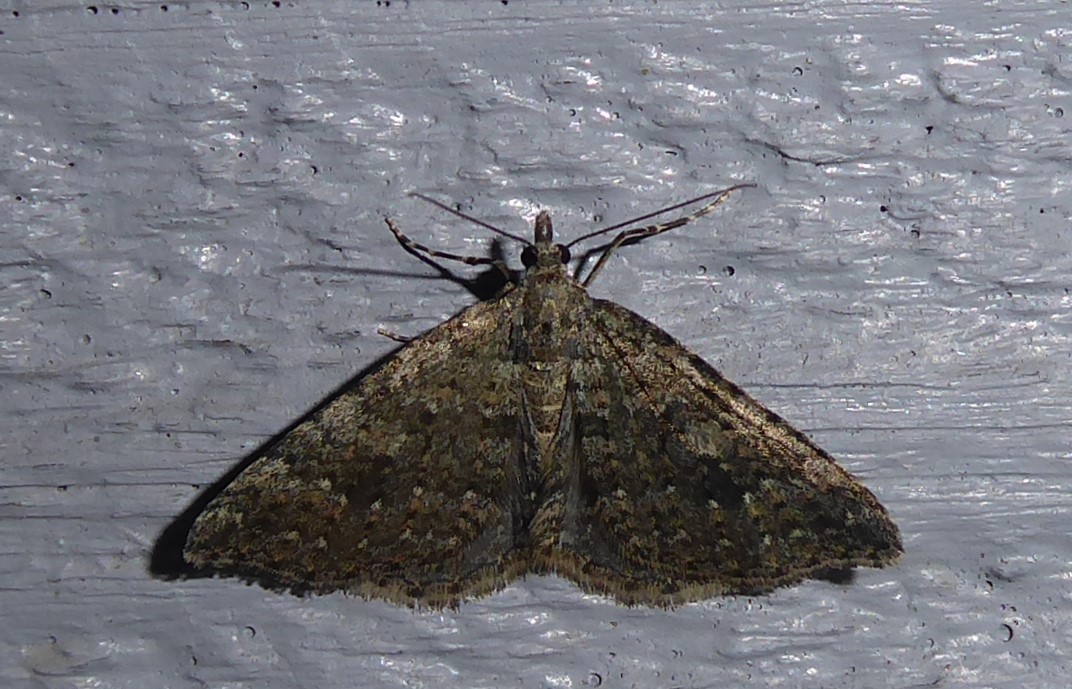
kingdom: Animalia
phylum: Arthropoda
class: Insecta
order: Lepidoptera
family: Geometridae
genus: Helastia
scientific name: Helastia corcularia
